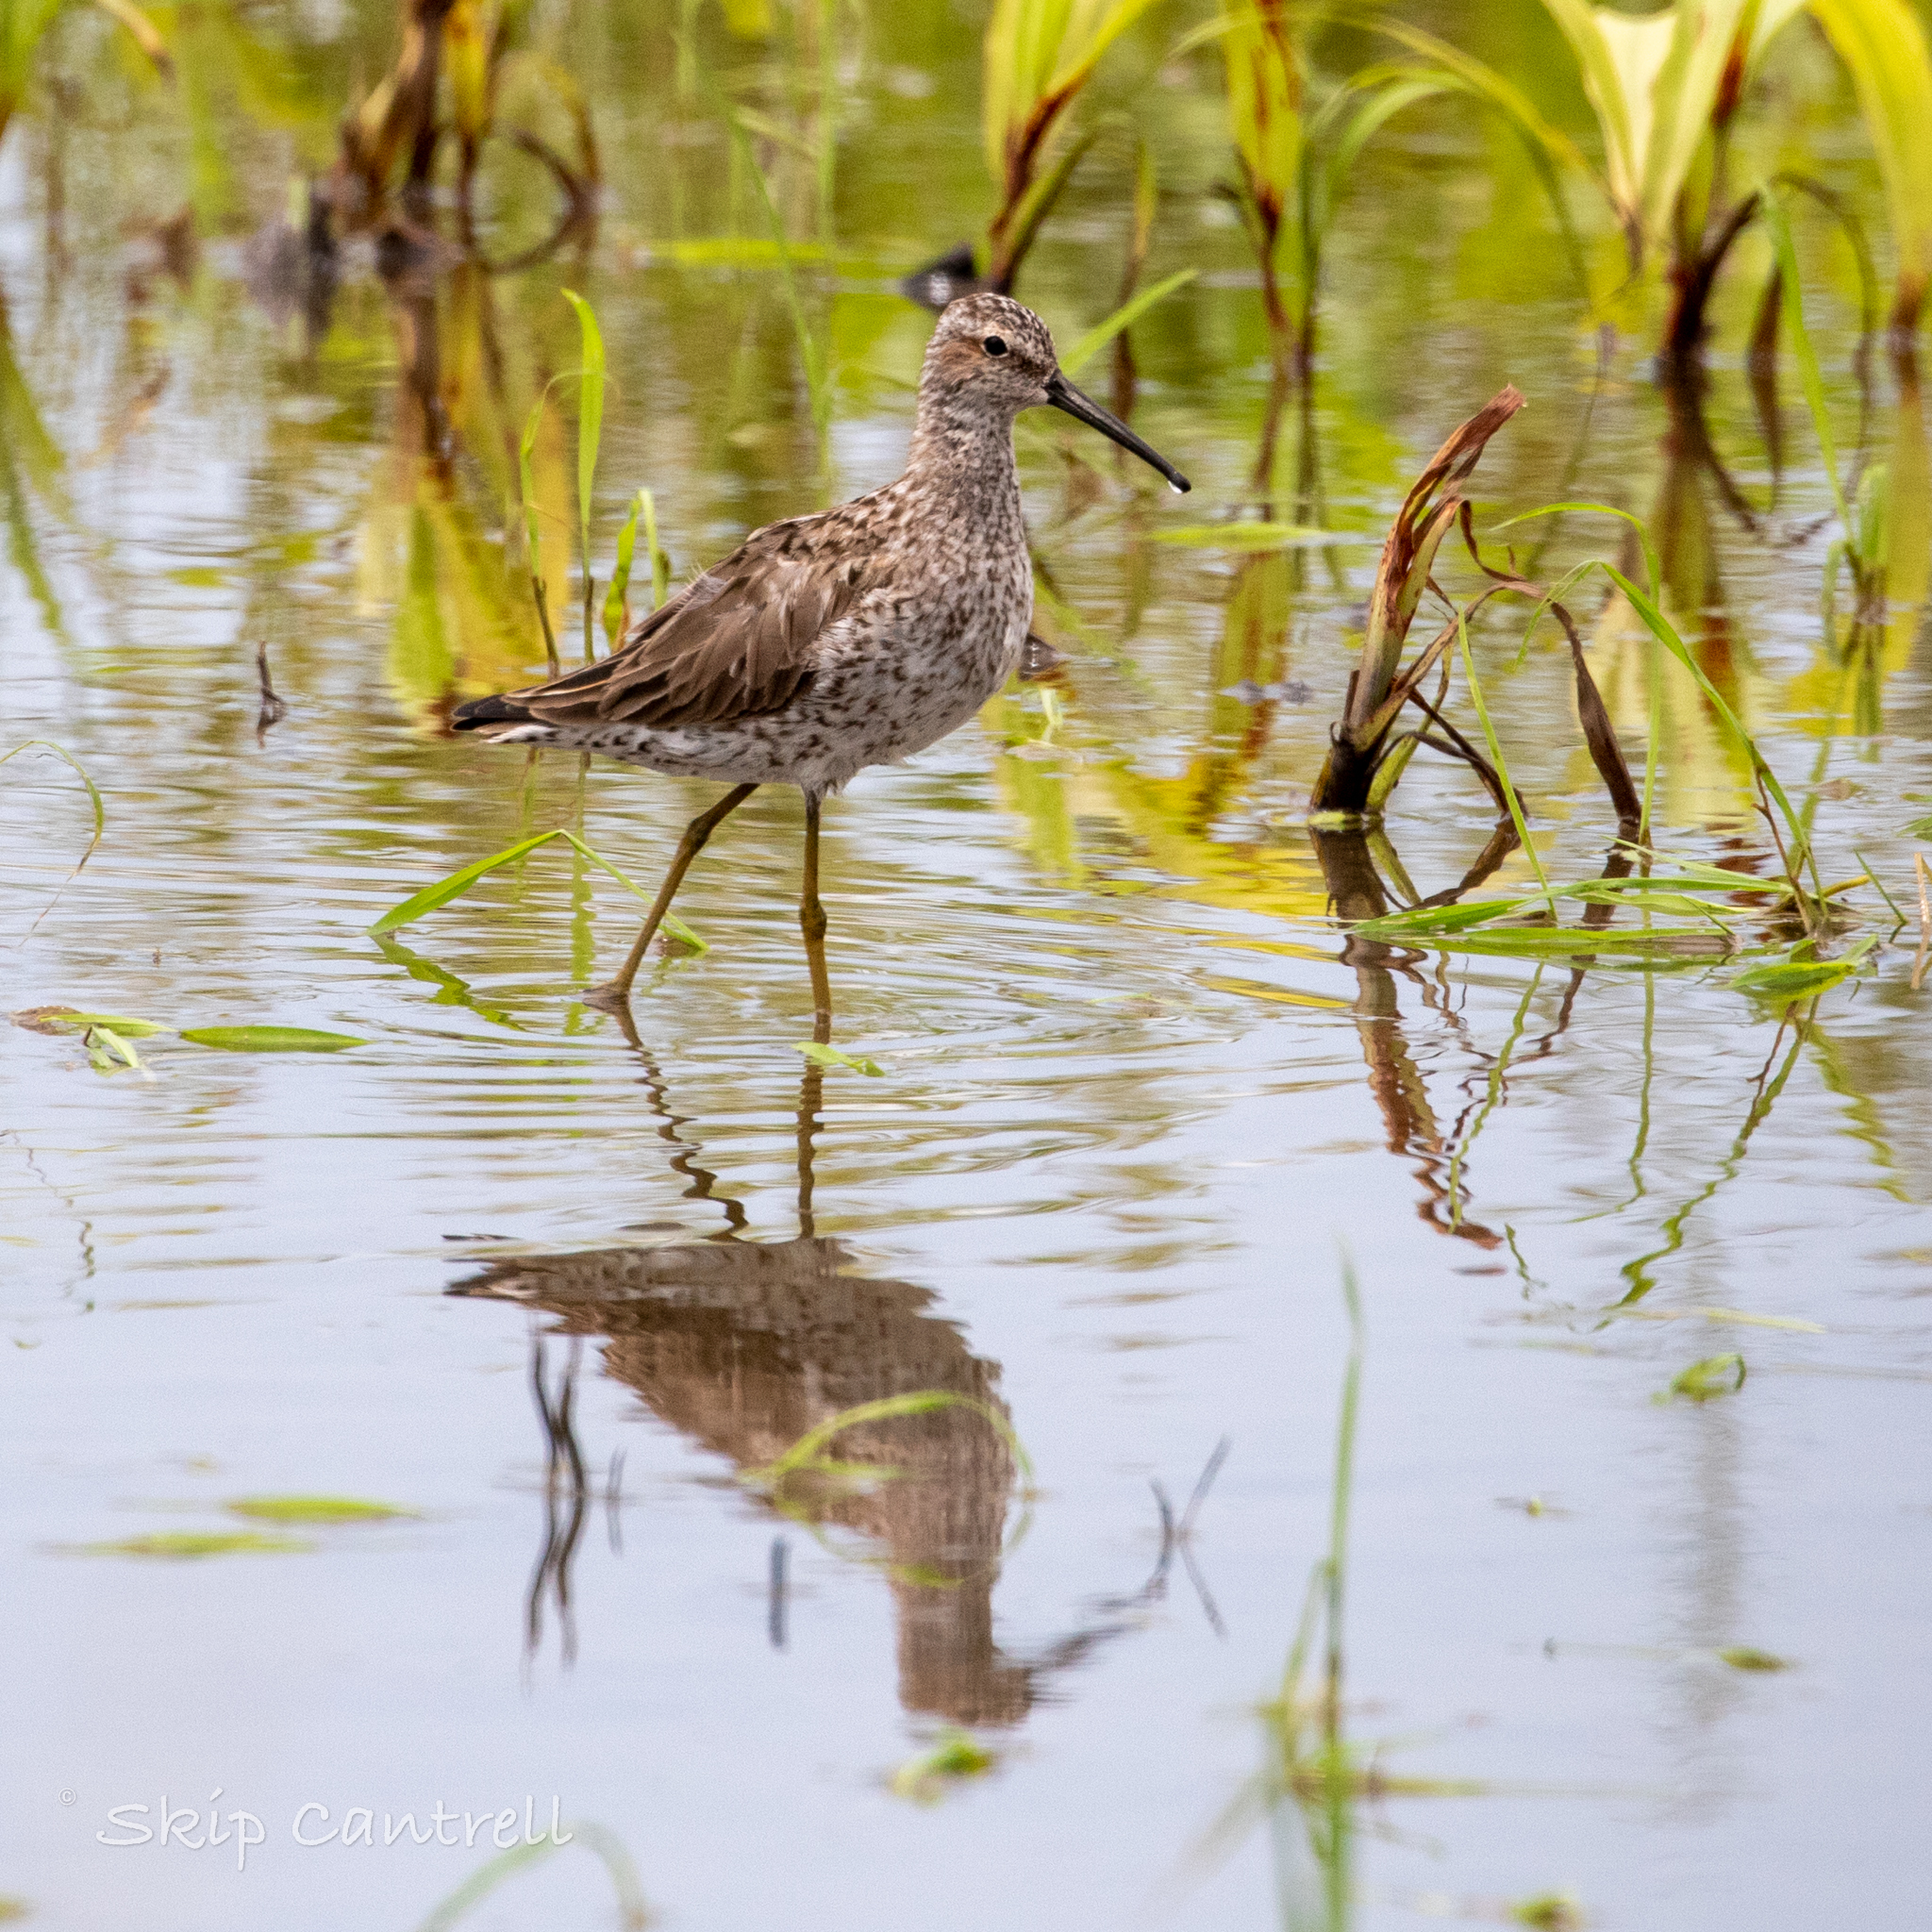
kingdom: Animalia
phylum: Chordata
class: Aves
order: Charadriiformes
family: Scolopacidae
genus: Calidris
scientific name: Calidris himantopus
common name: Stilt sandpiper
